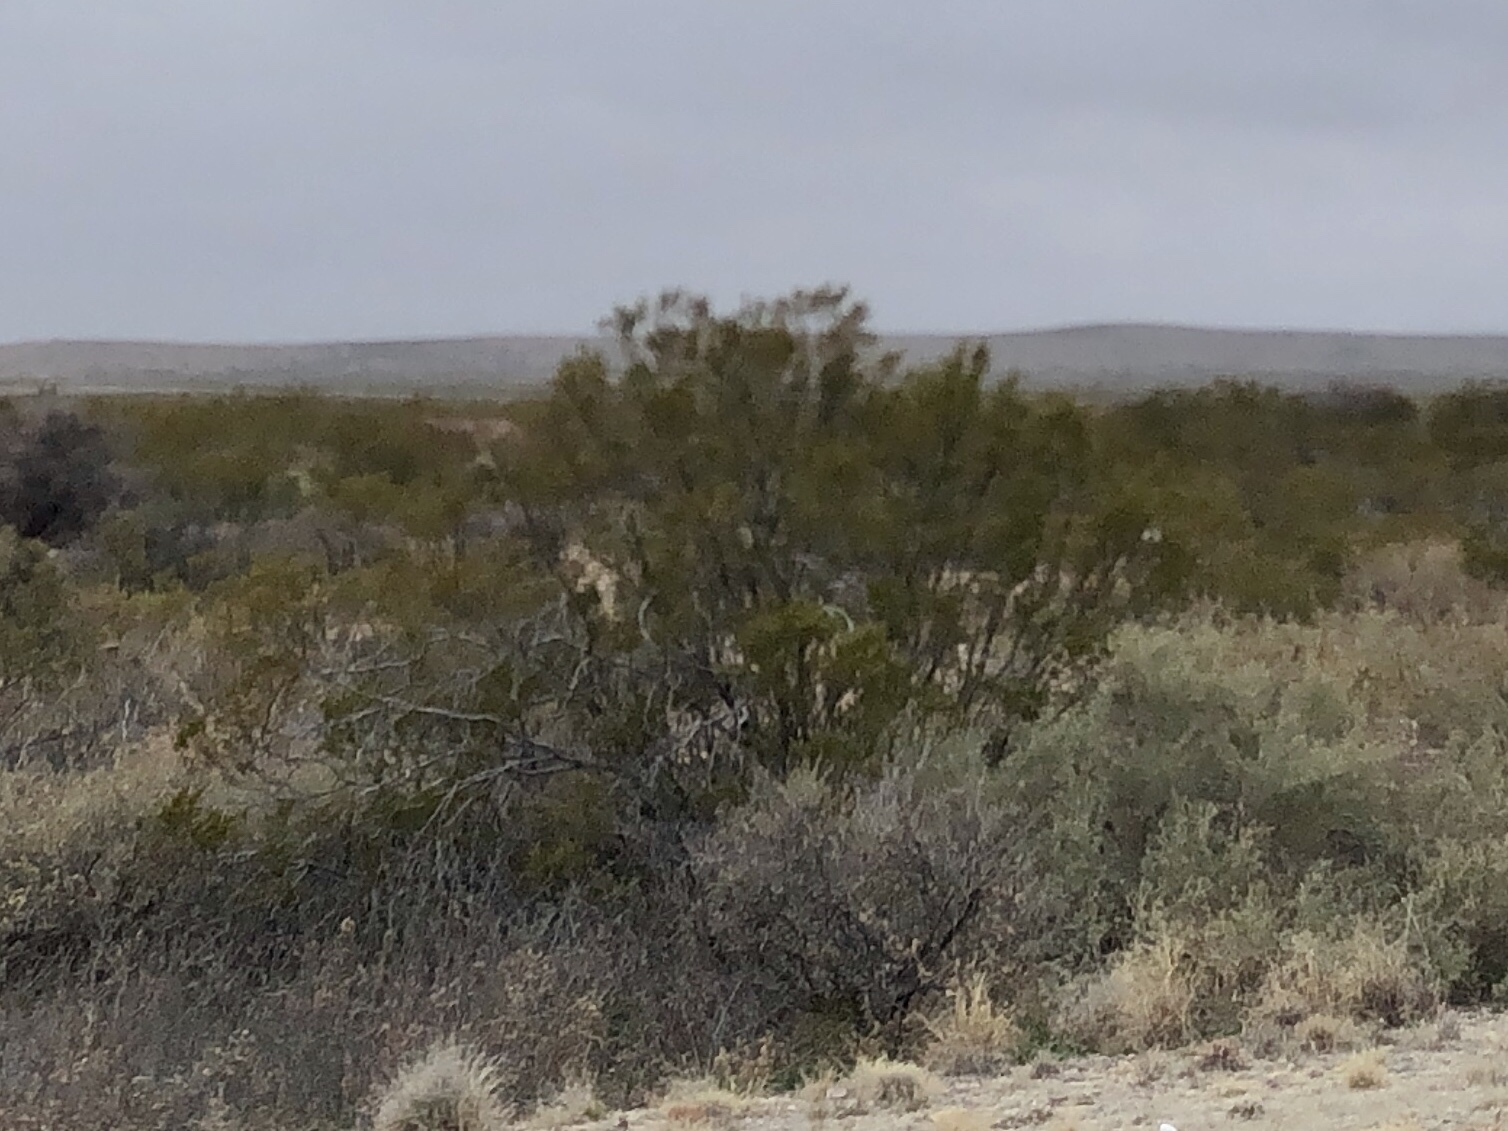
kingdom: Plantae
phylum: Tracheophyta
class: Magnoliopsida
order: Zygophyllales
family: Zygophyllaceae
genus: Larrea
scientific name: Larrea tridentata
